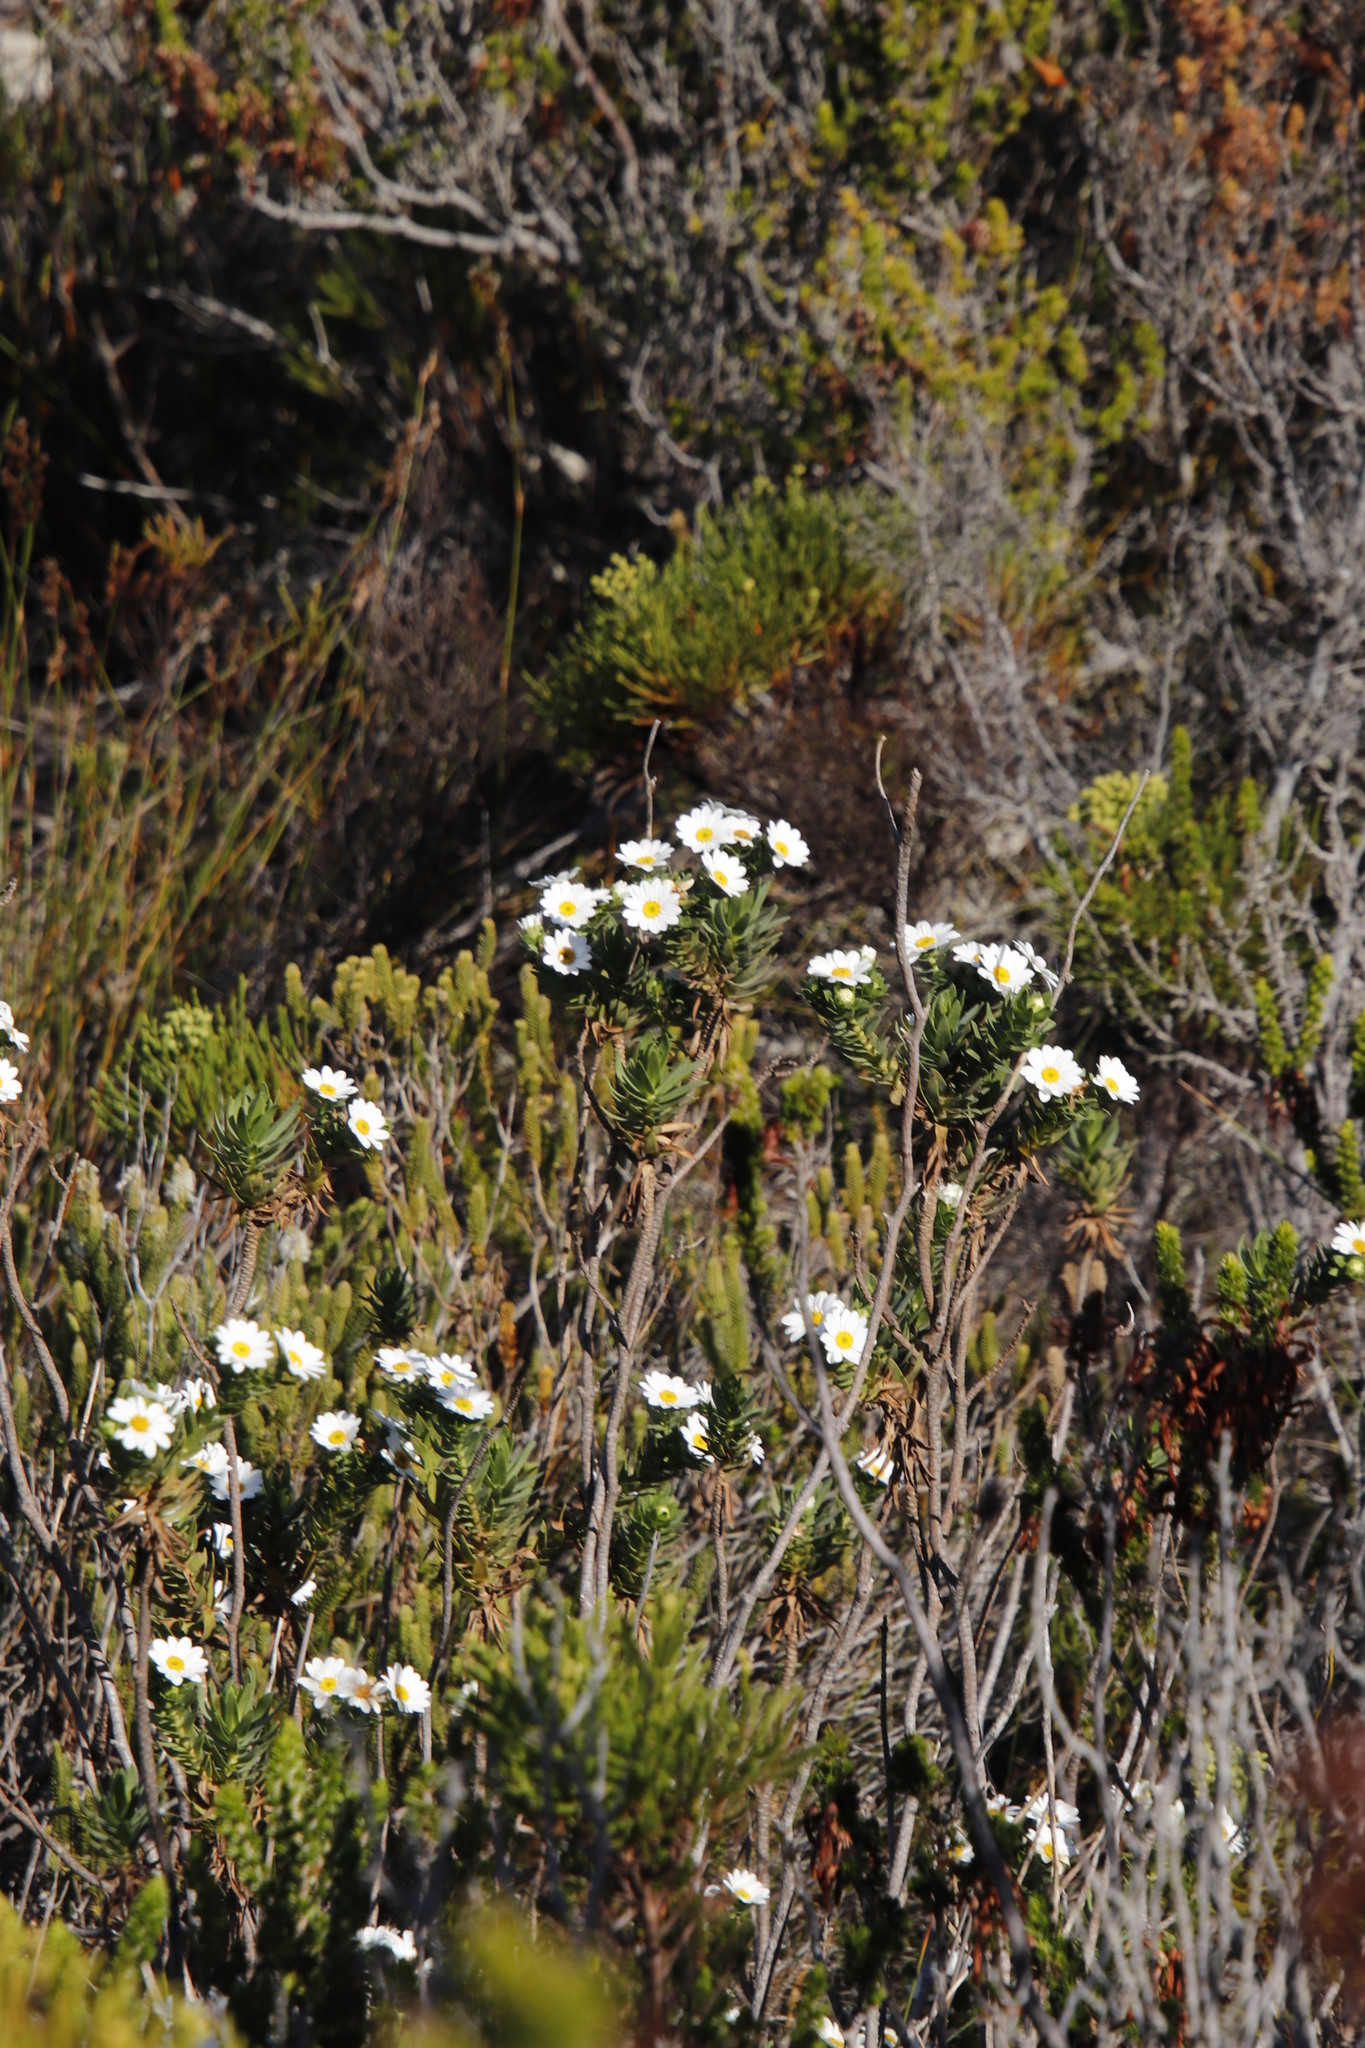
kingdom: Plantae
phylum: Tracheophyta
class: Magnoliopsida
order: Asterales
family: Asteraceae
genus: Osmitopsis
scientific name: Osmitopsis asteriscoides
